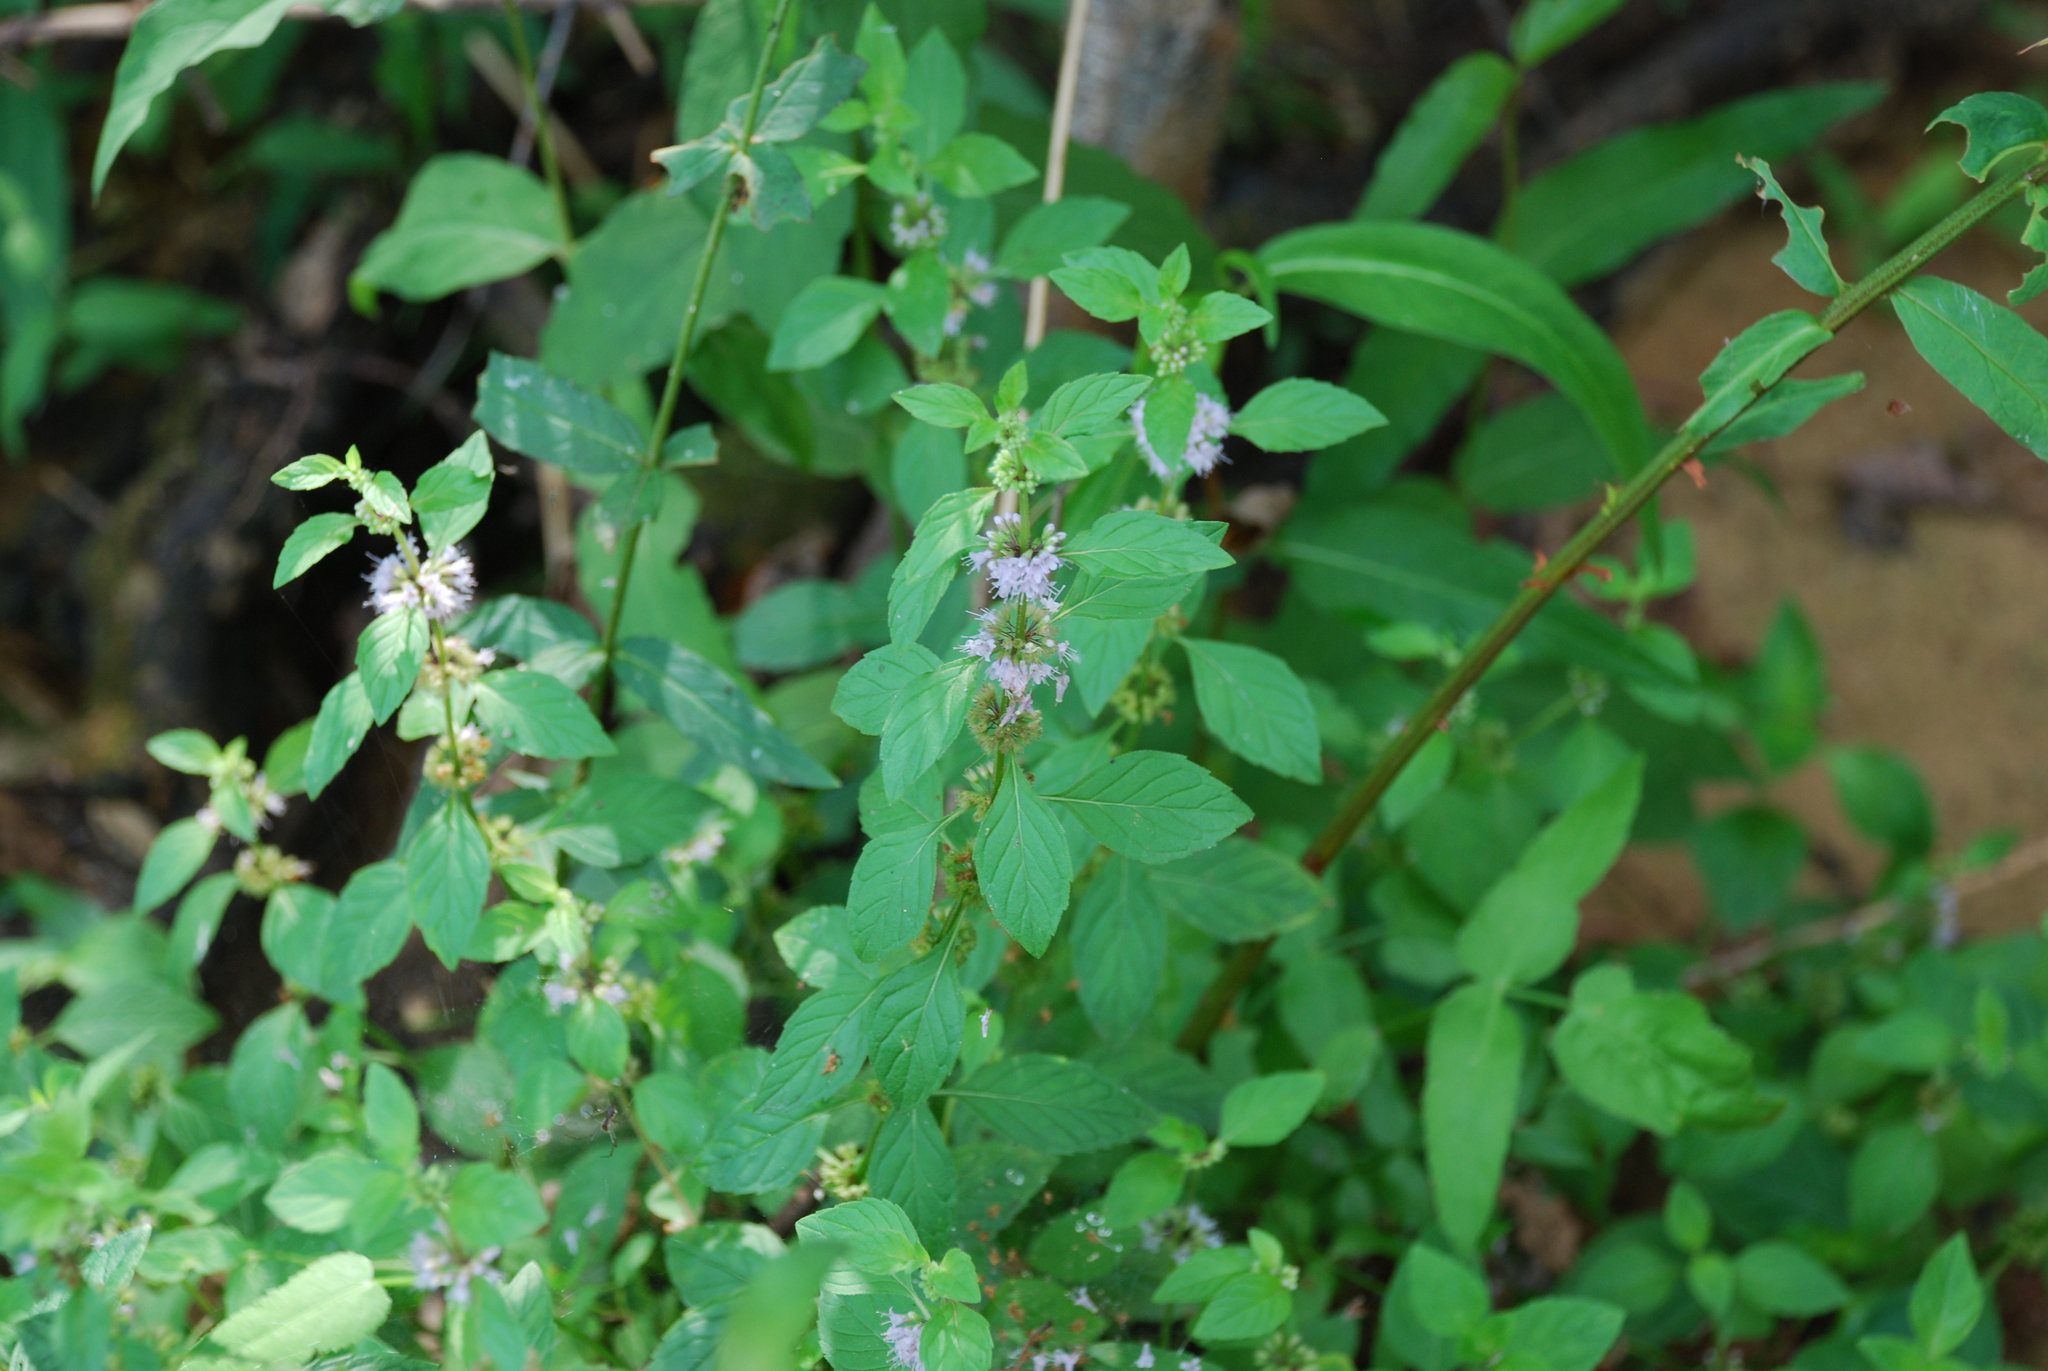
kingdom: Plantae
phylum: Tracheophyta
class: Magnoliopsida
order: Lamiales
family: Lamiaceae
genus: Mentha
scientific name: Mentha arvensis
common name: Corn mint
